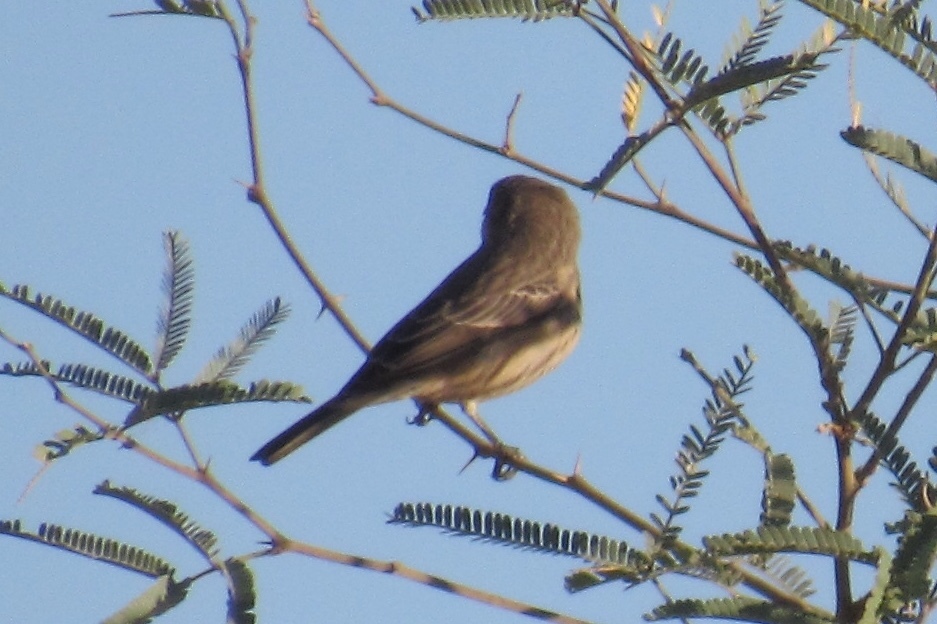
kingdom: Animalia
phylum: Chordata
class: Aves
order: Passeriformes
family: Fringillidae
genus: Haemorhous
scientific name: Haemorhous mexicanus
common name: House finch
